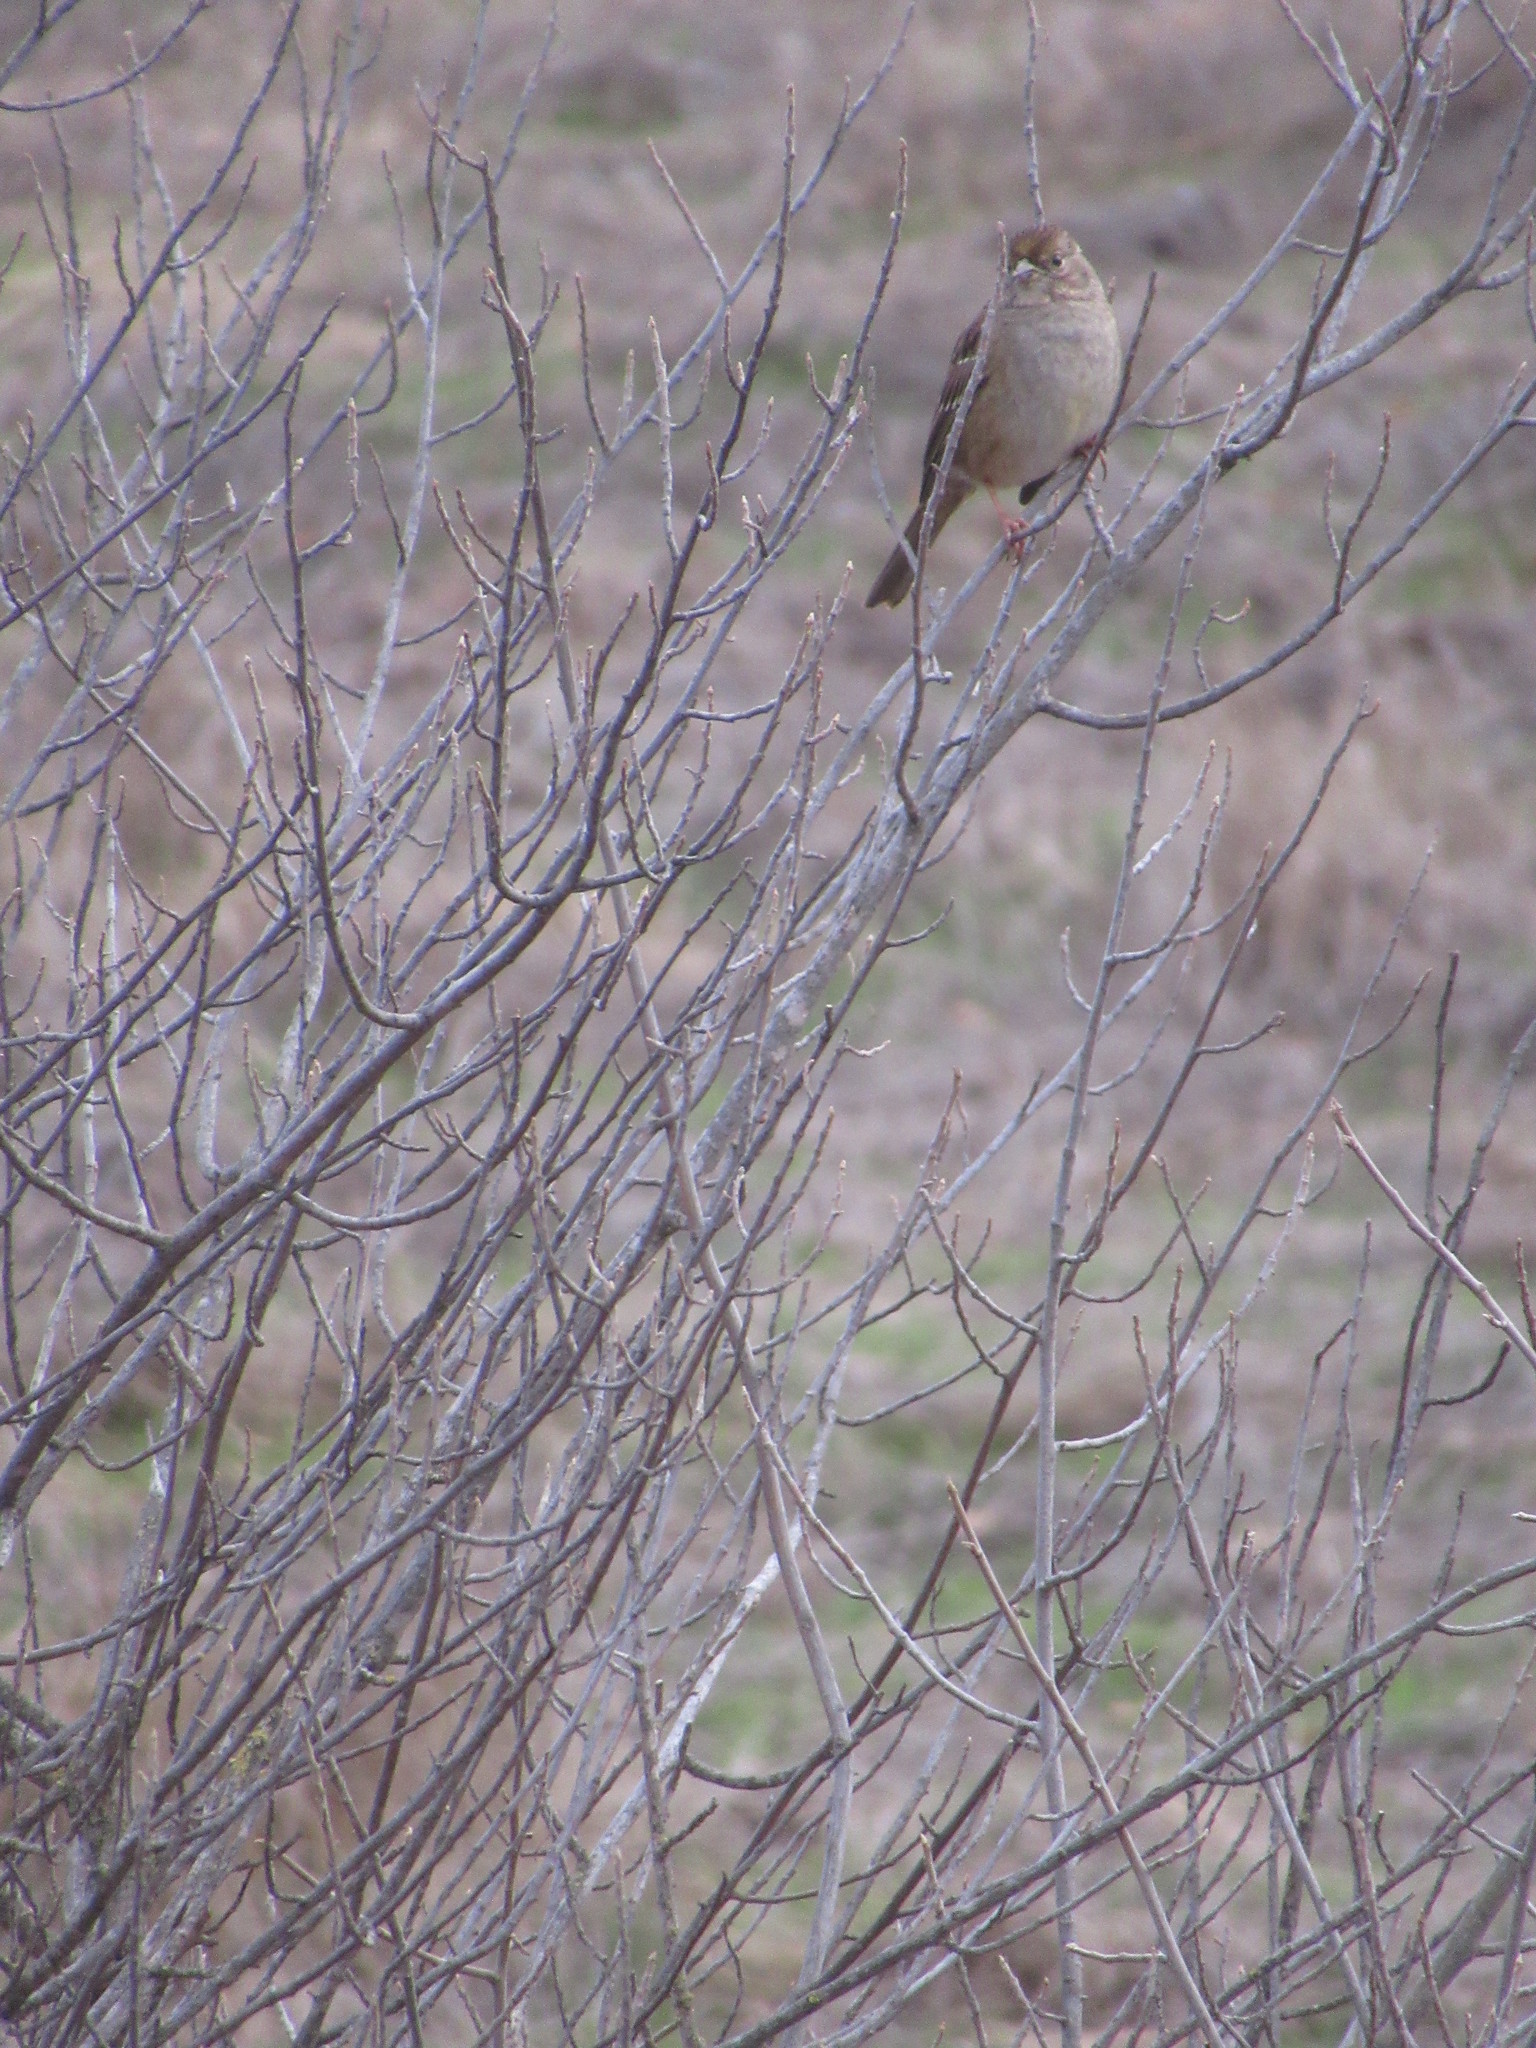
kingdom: Animalia
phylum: Chordata
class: Aves
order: Passeriformes
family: Passerellidae
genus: Zonotrichia
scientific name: Zonotrichia atricapilla
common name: Golden-crowned sparrow
